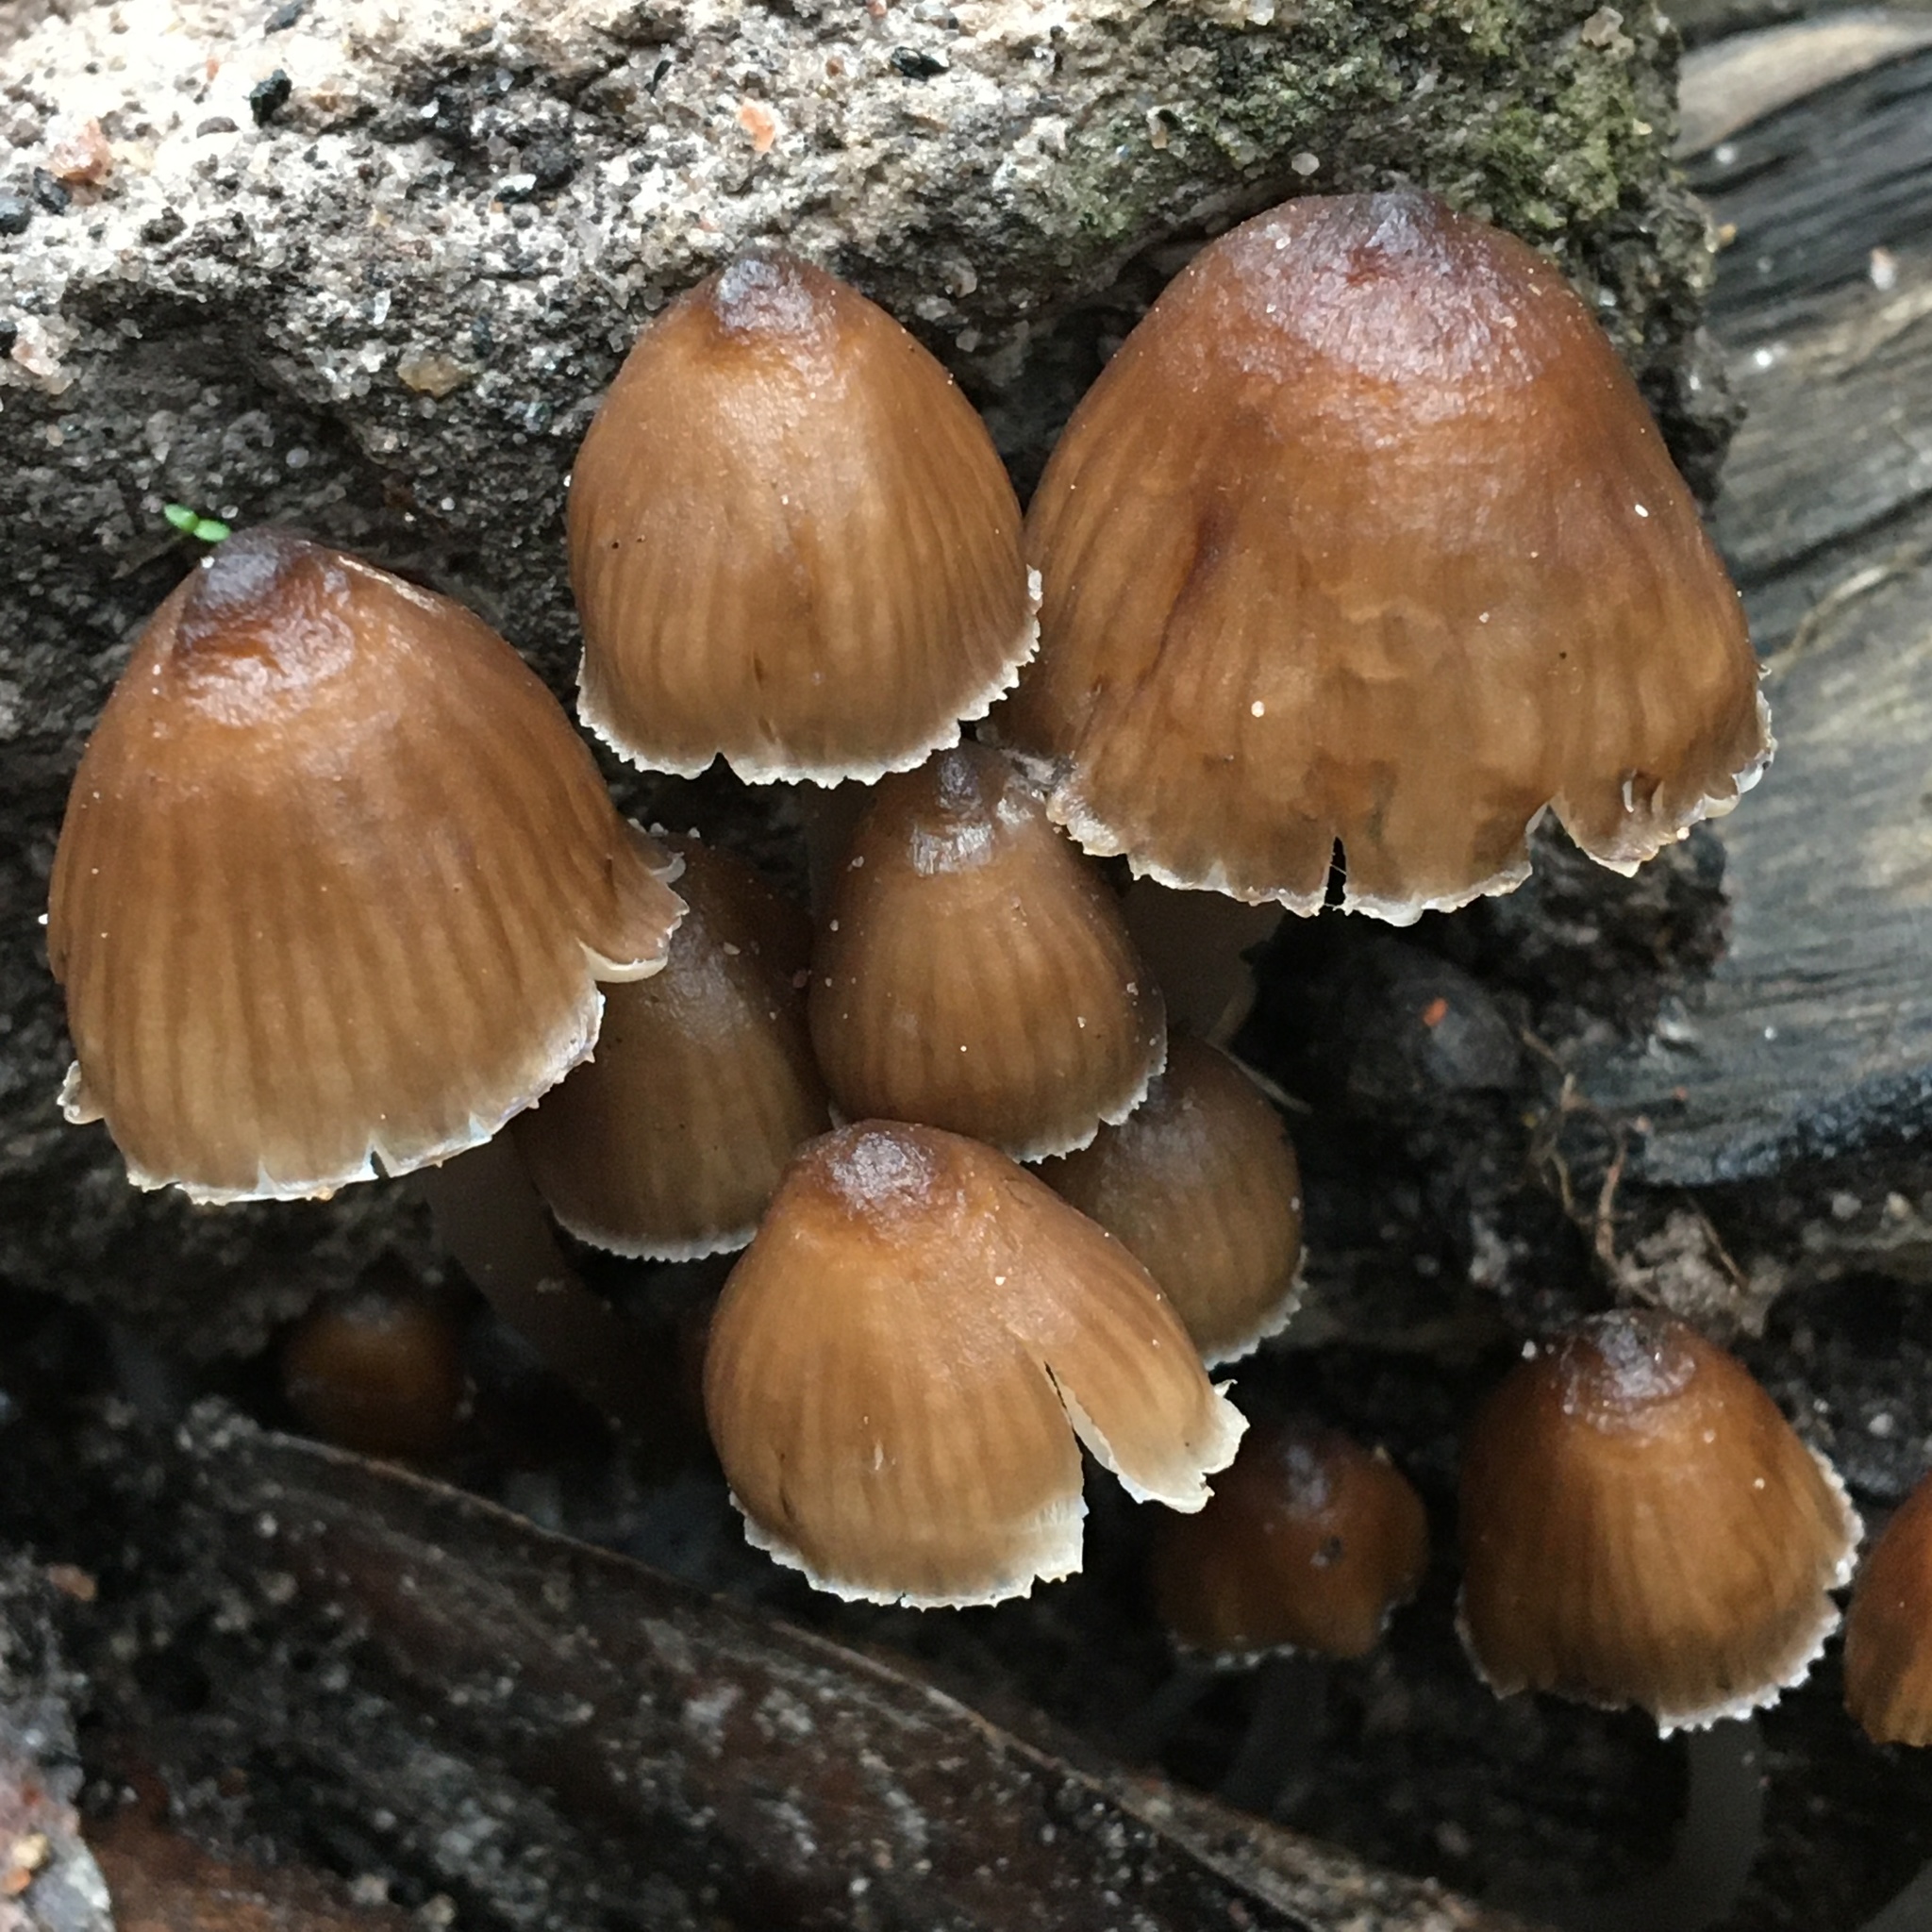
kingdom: Fungi
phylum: Basidiomycota
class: Agaricomycetes
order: Agaricales
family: Mycenaceae
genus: Mycena
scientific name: Mycena subgalericulata
